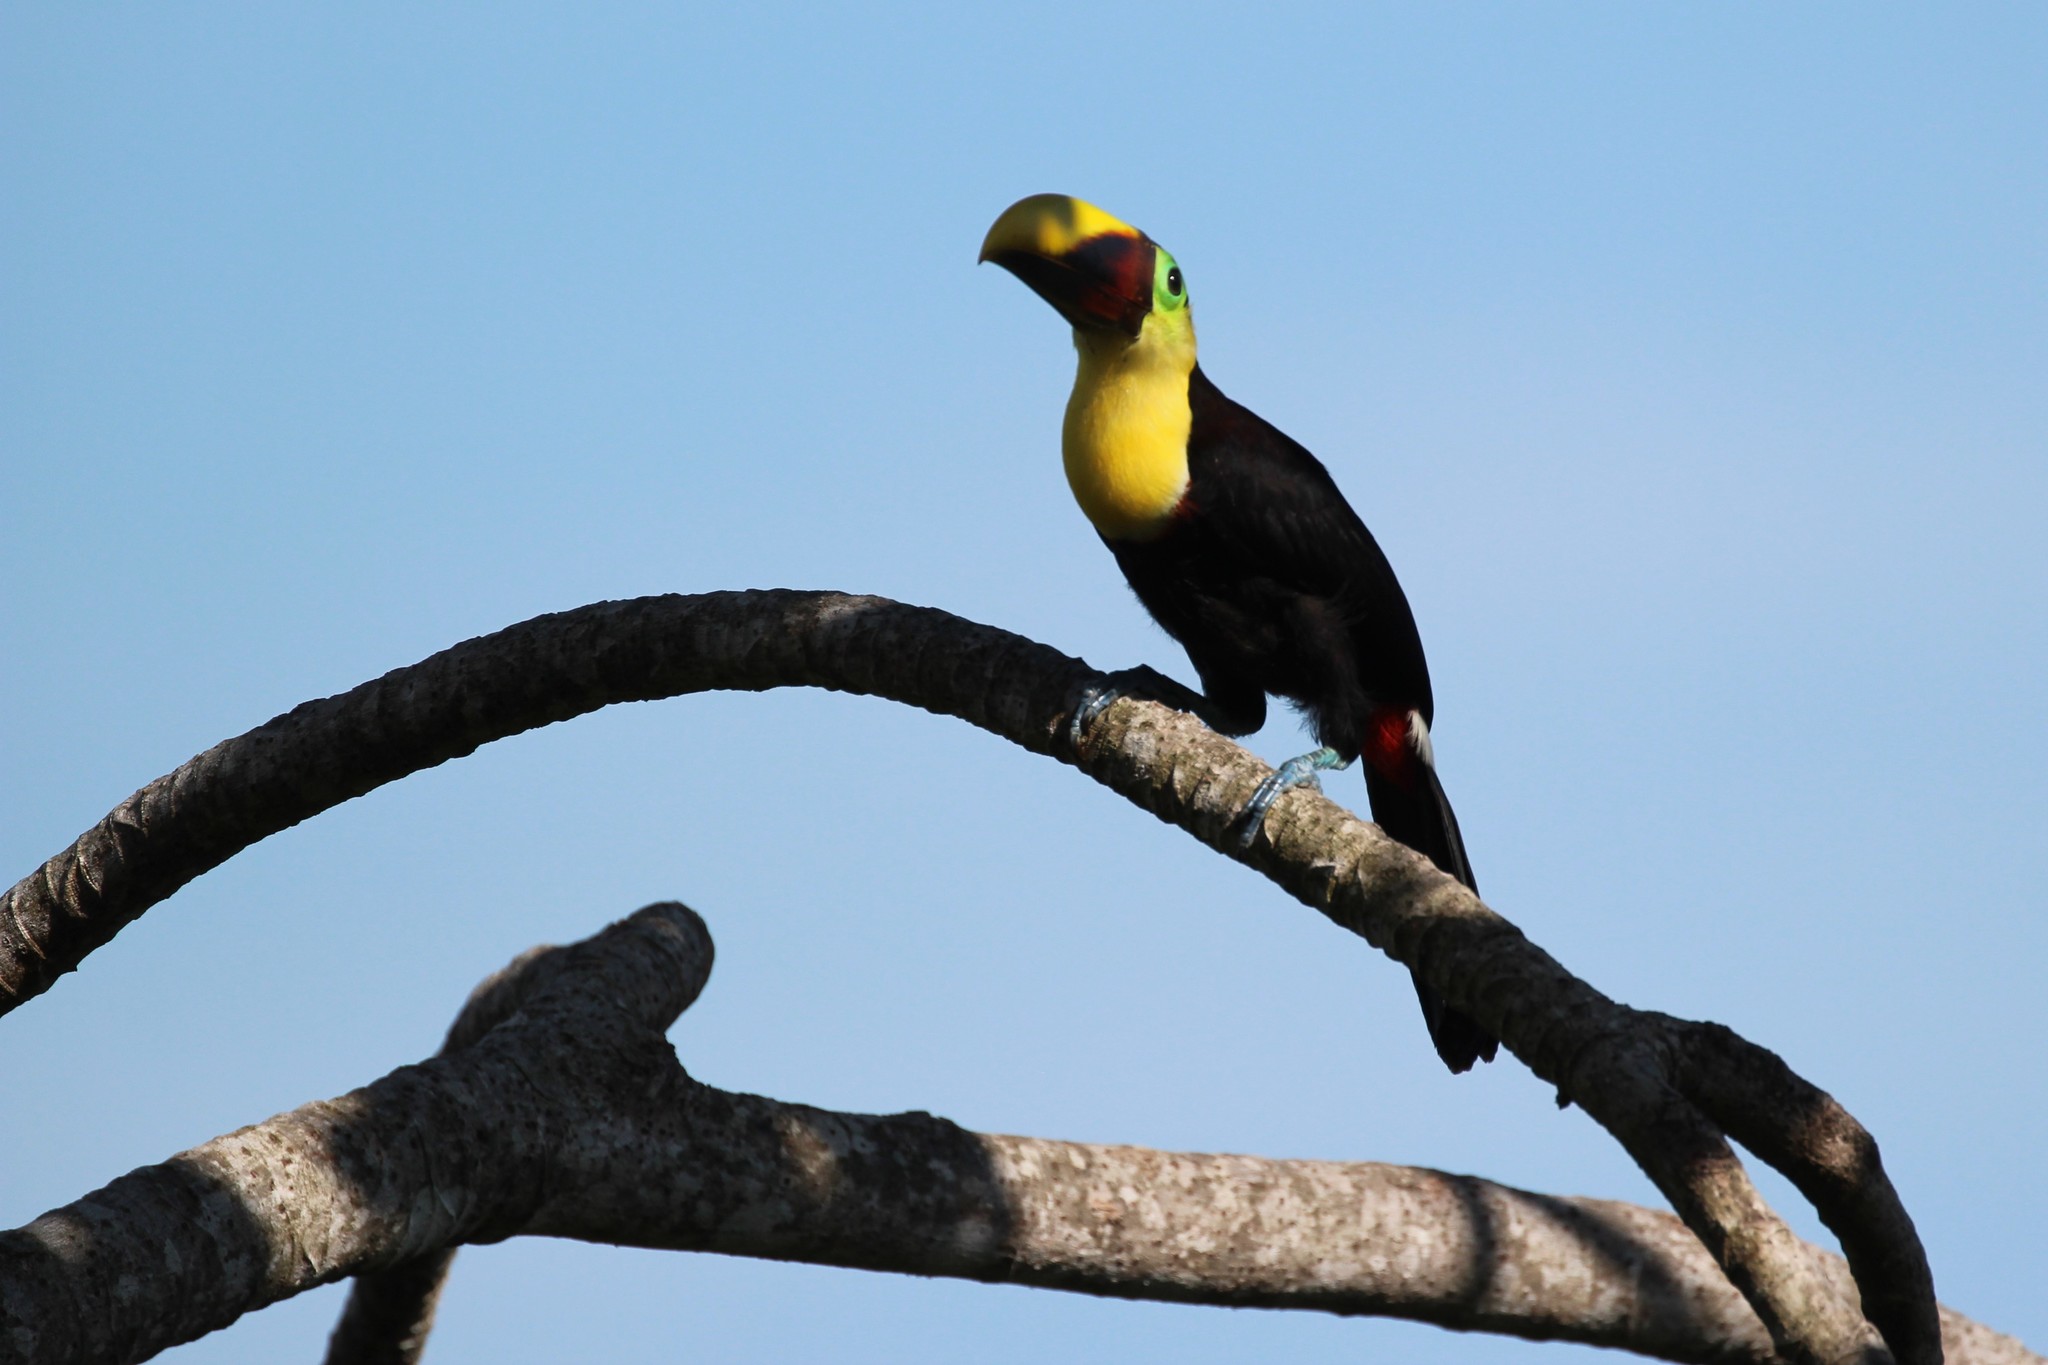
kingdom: Animalia
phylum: Chordata
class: Aves
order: Piciformes
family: Ramphastidae
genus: Ramphastos
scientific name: Ramphastos ambiguus
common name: Yellow-throated toucan
